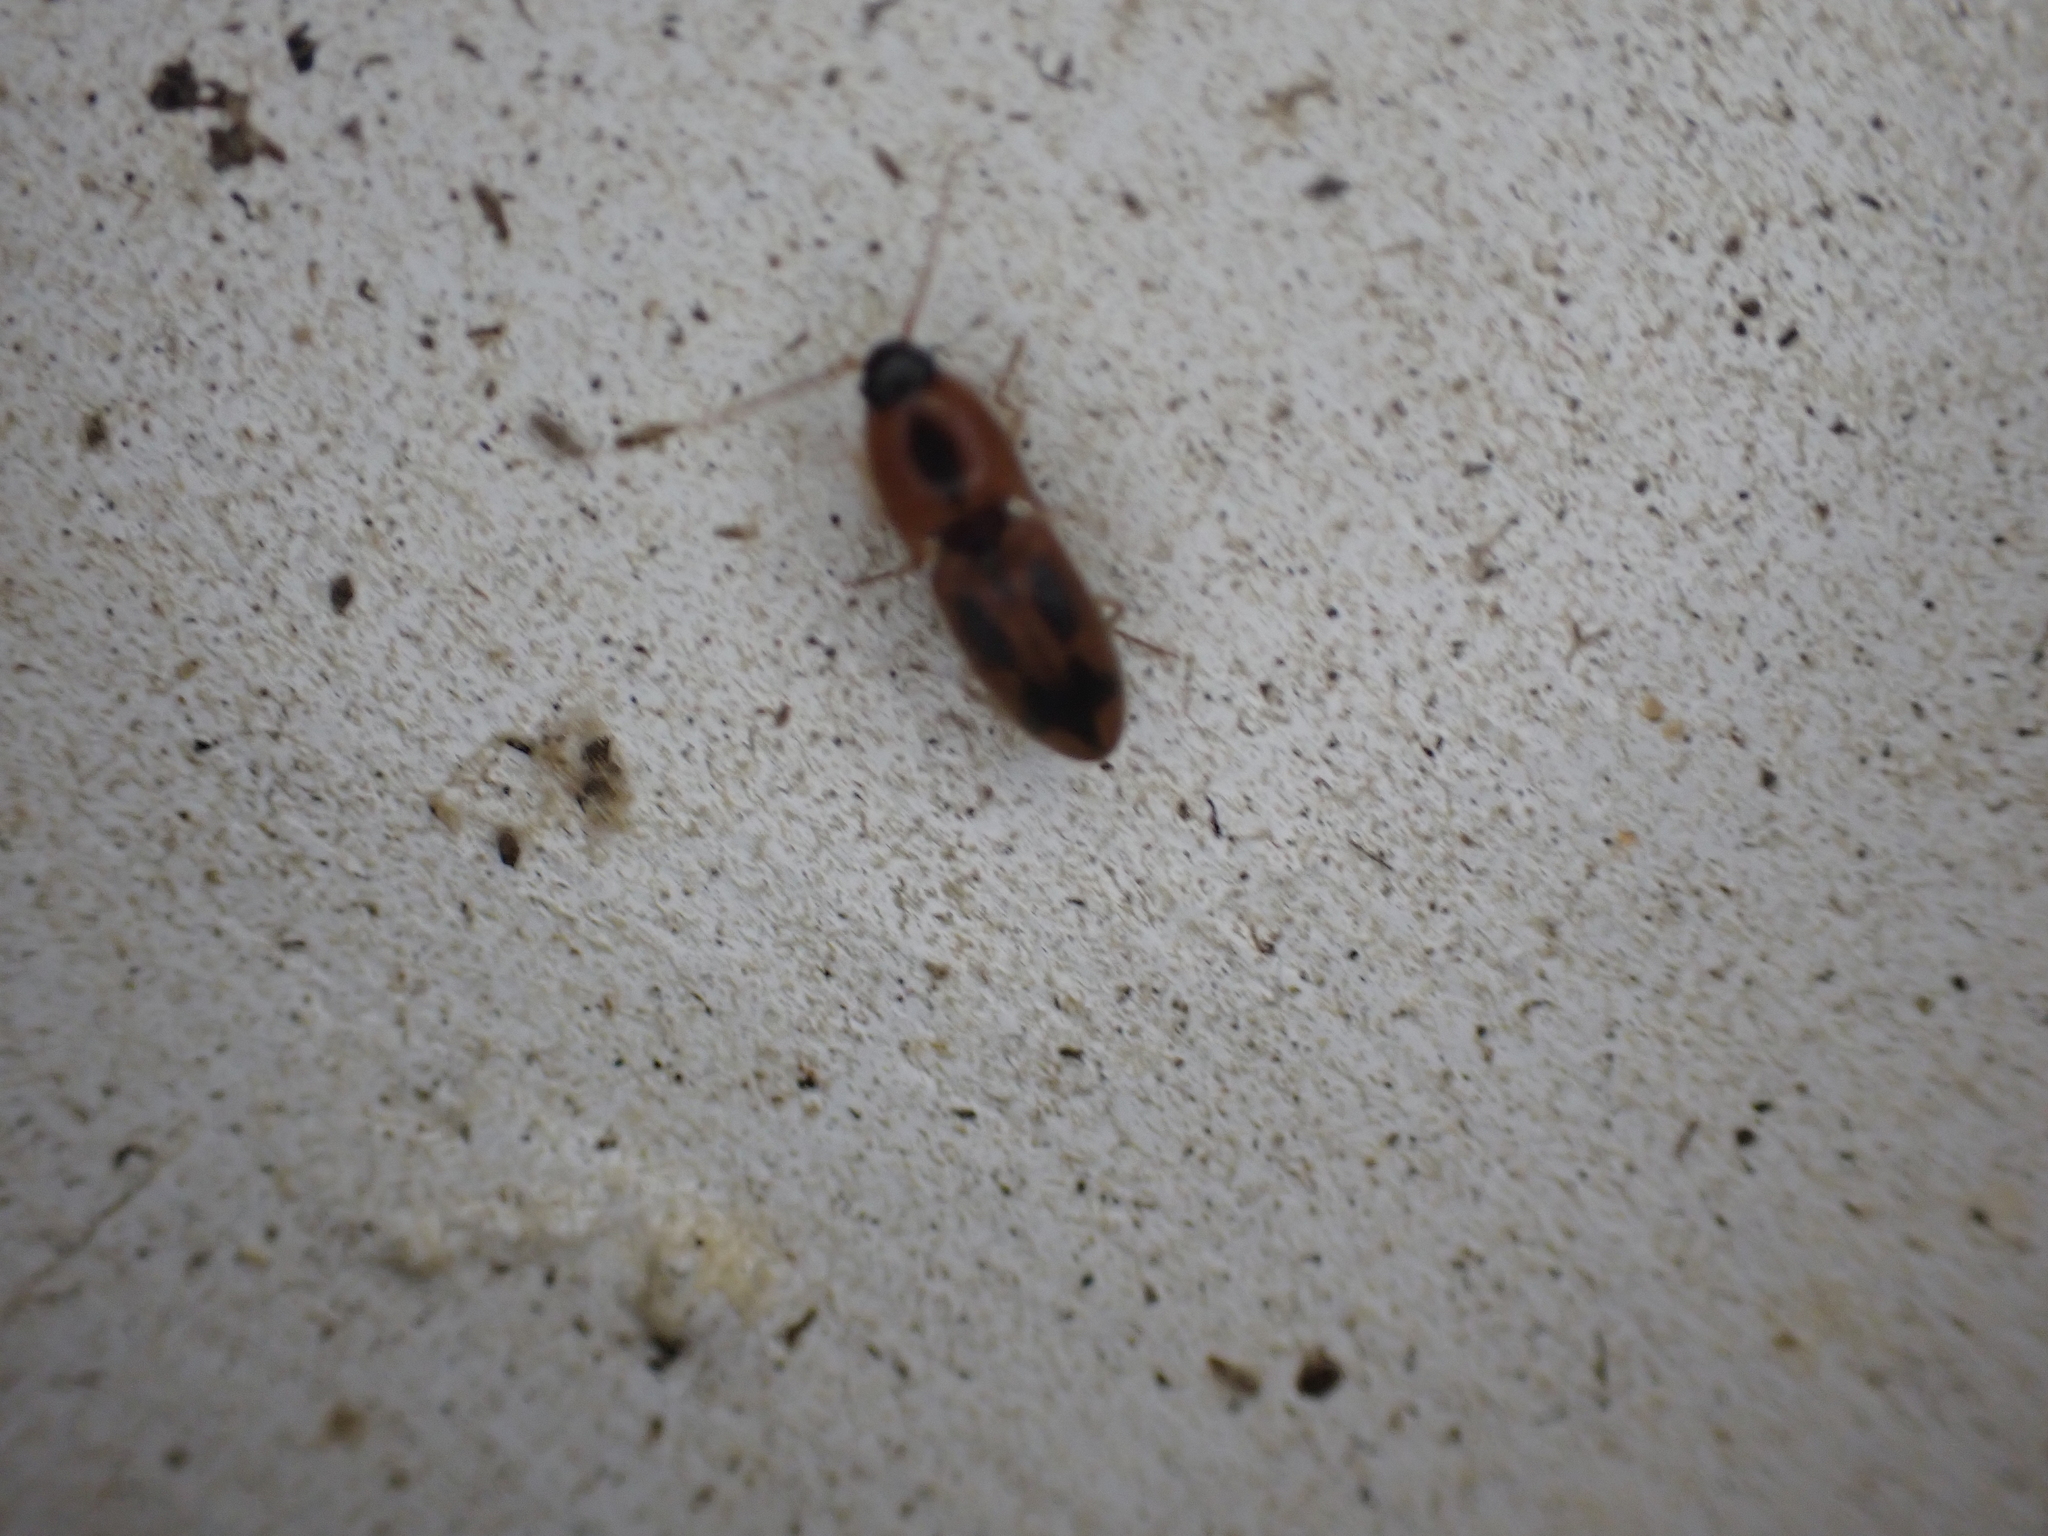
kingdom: Animalia
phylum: Arthropoda
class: Insecta
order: Coleoptera
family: Elateridae
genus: Aeolus
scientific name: Aeolus mellillus
